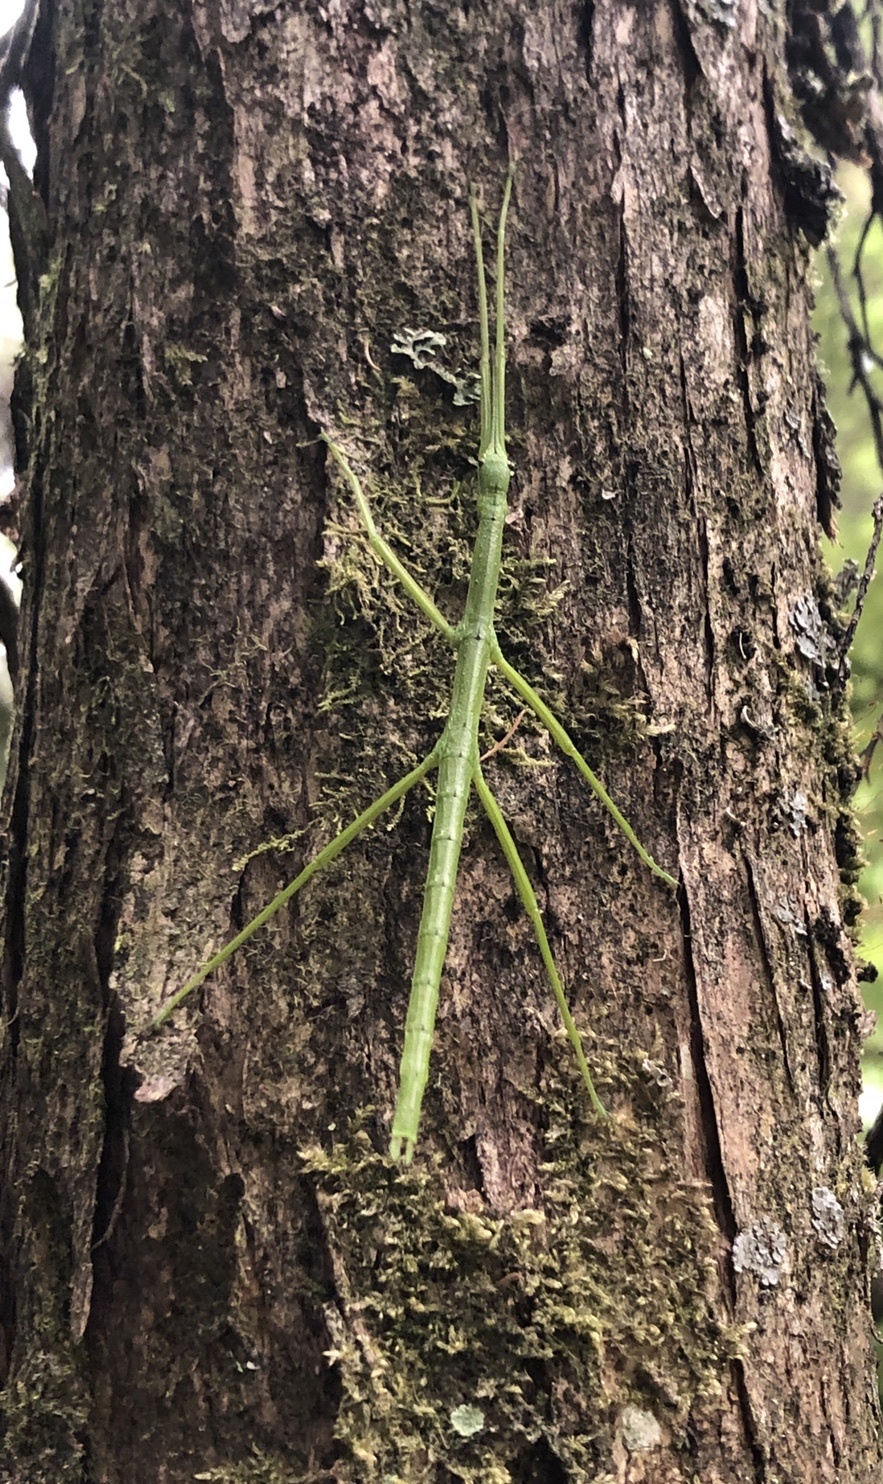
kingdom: Animalia
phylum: Arthropoda
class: Insecta
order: Phasmida
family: Phasmatidae
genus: Clitarchus
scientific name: Clitarchus hookeri
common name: Smooth stick insect
